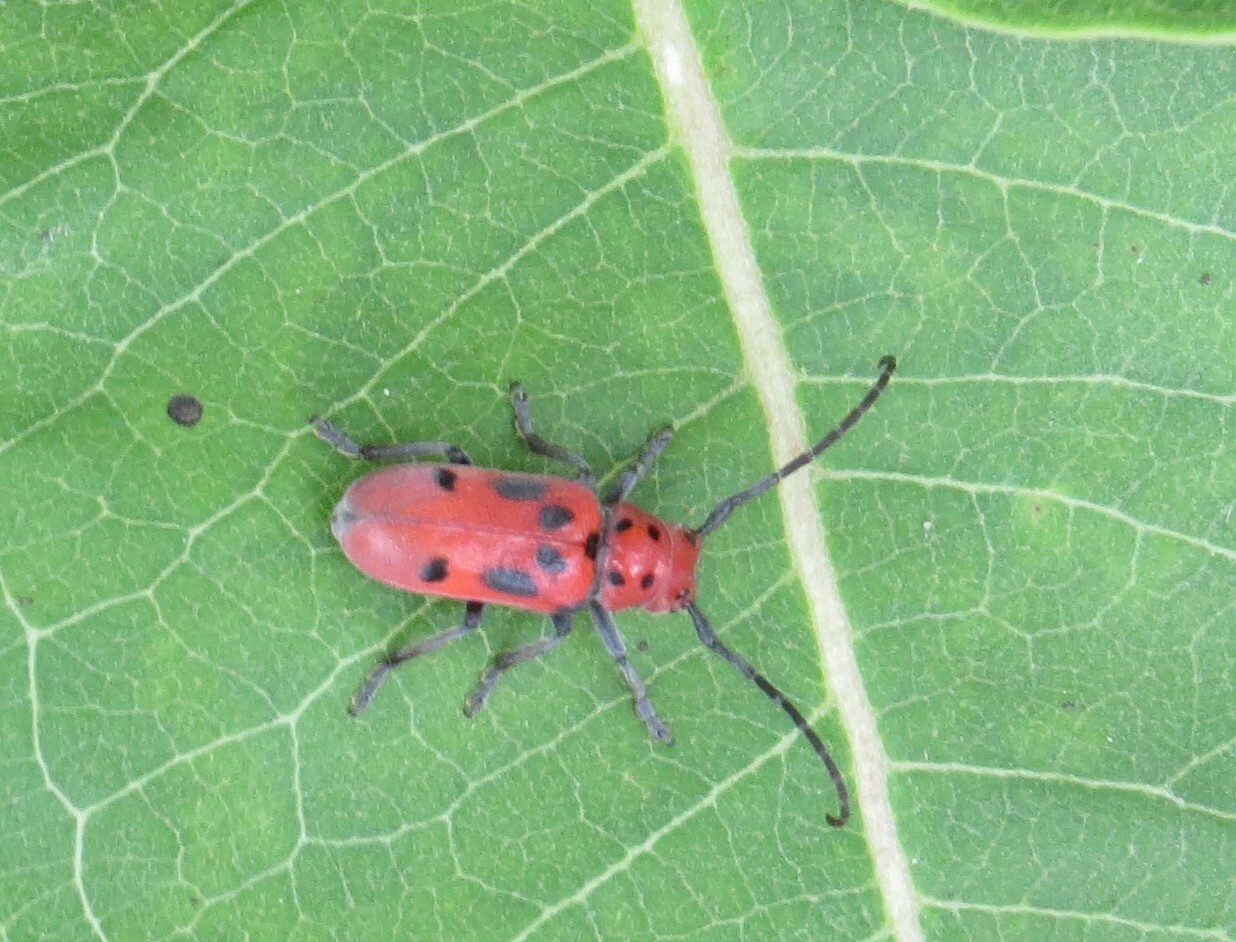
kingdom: Animalia
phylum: Arthropoda
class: Insecta
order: Coleoptera
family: Cerambycidae
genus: Tetraopes
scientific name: Tetraopes tetrophthalmus
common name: Red milkweed beetle
